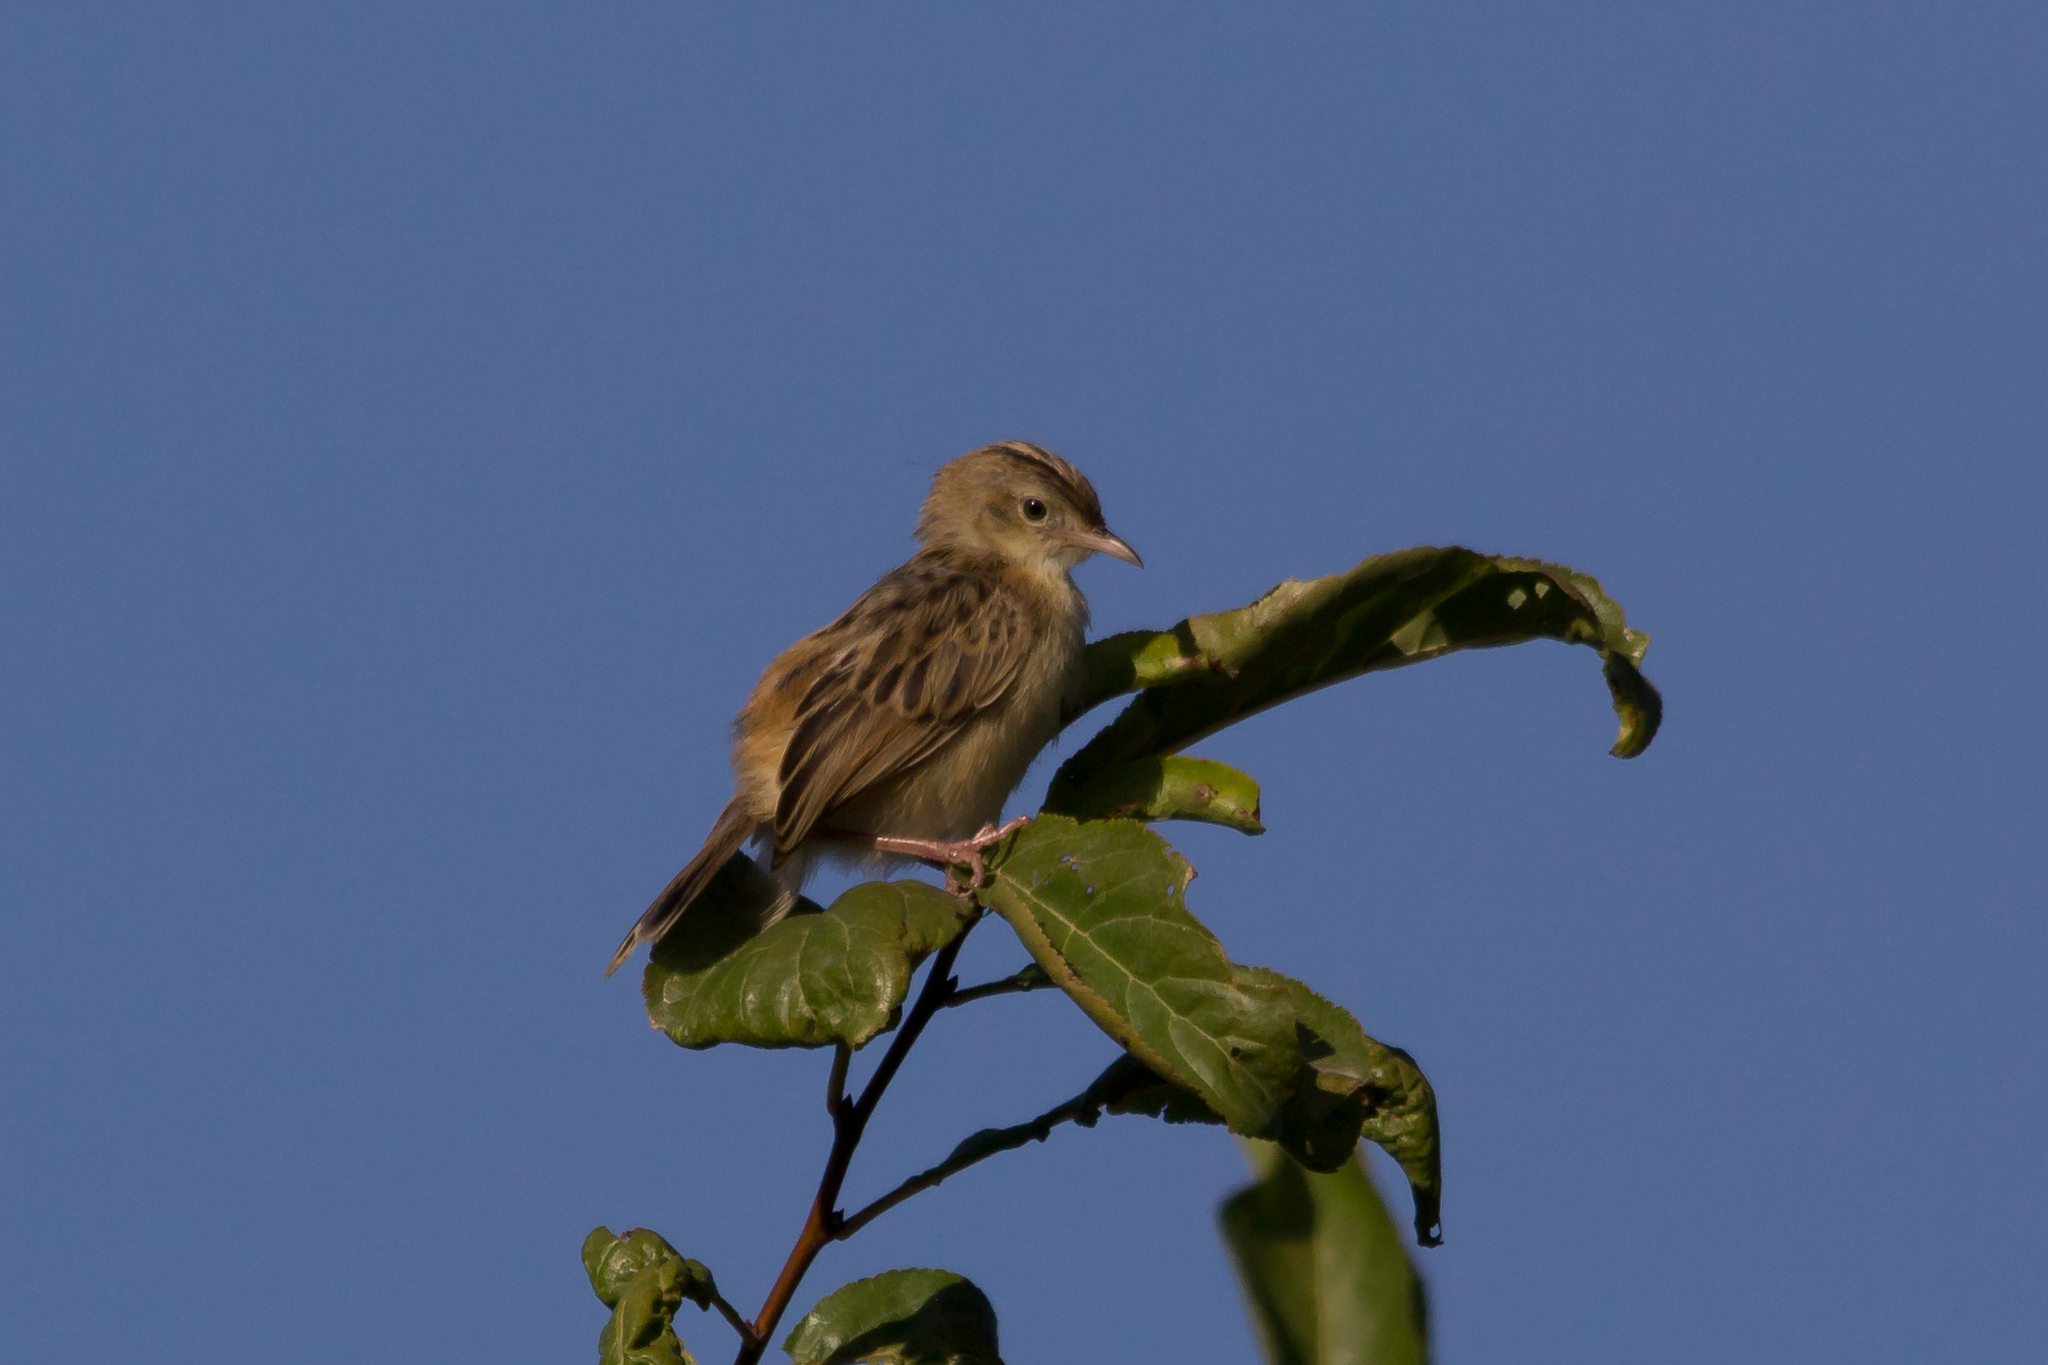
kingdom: Animalia
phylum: Chordata
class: Aves
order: Passeriformes
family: Cisticolidae
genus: Cisticola
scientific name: Cisticola juncidis
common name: Zitting cisticola
